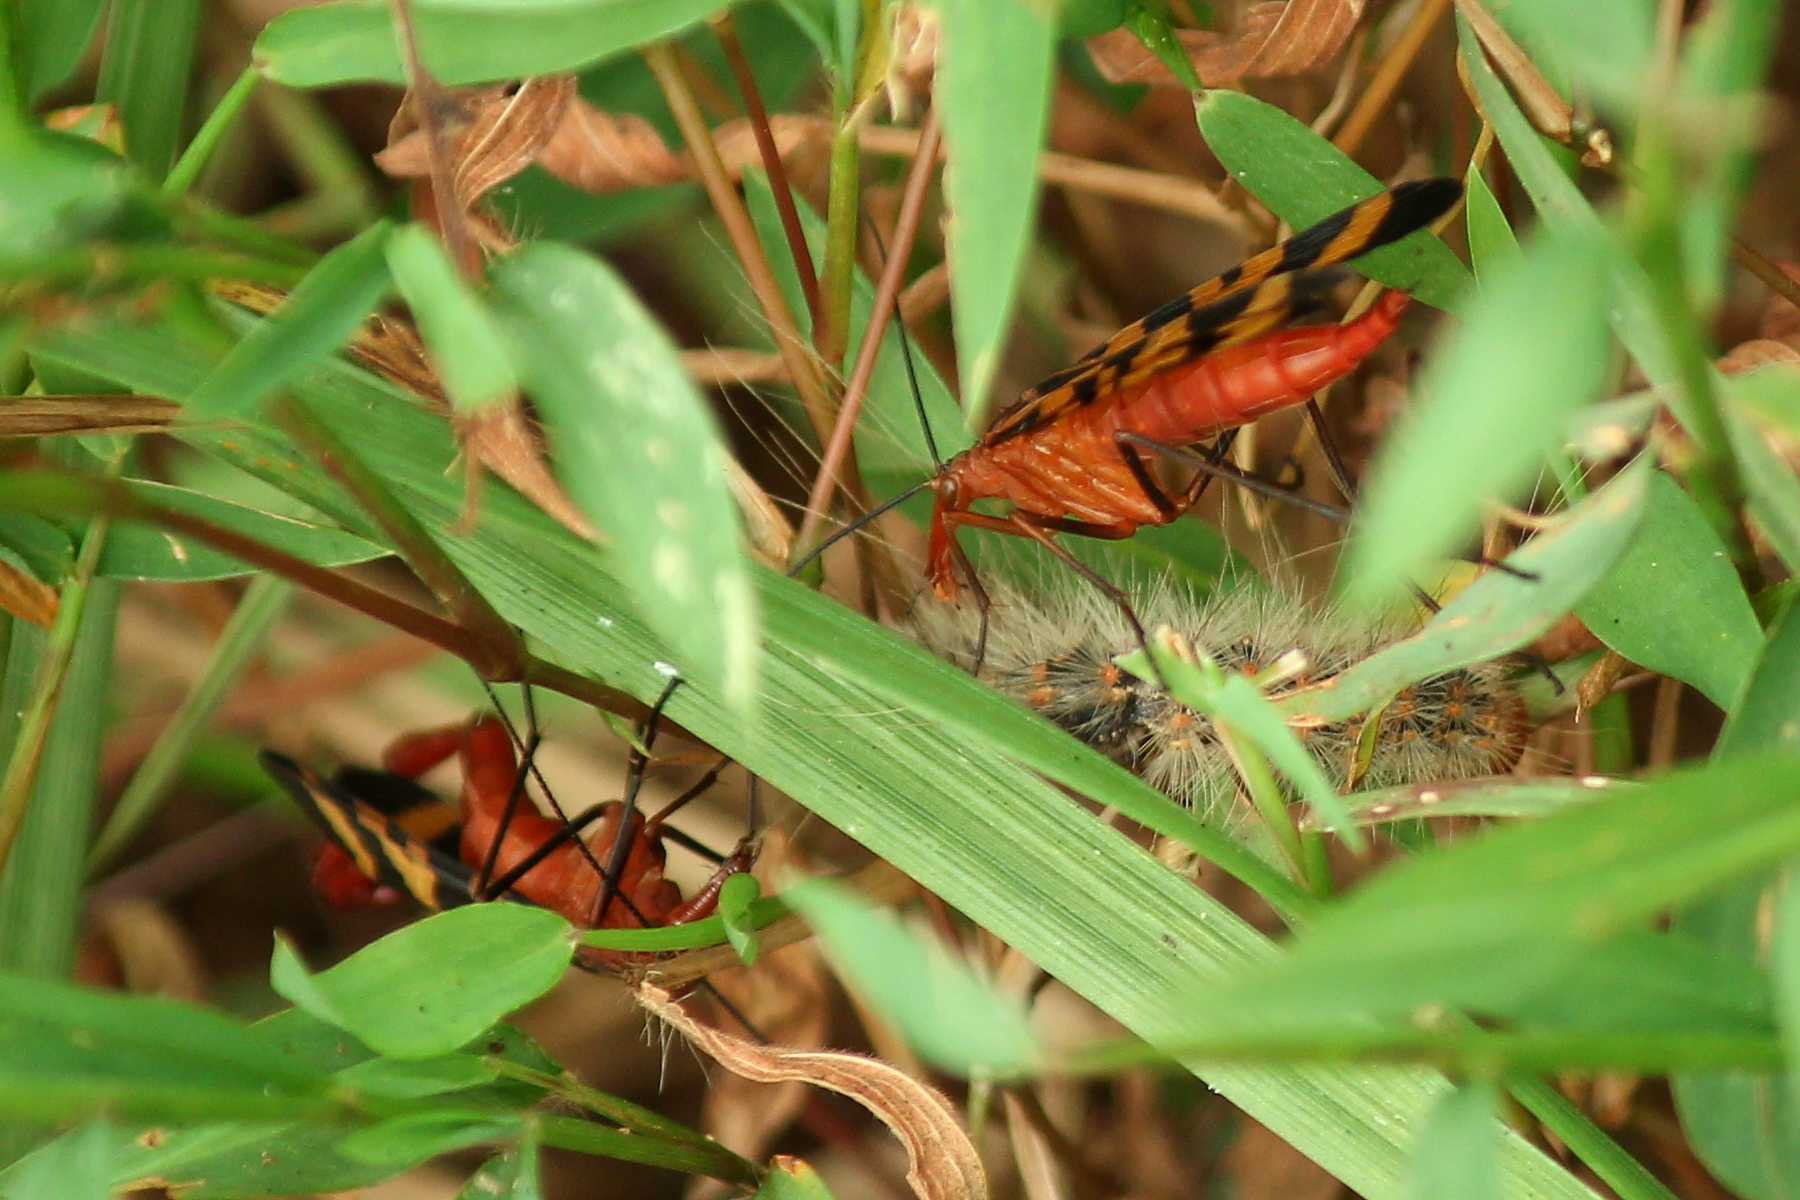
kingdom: Animalia
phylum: Arthropoda
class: Insecta
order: Mecoptera
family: Panorpidae
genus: Panorpa
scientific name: Panorpa nuptialis
